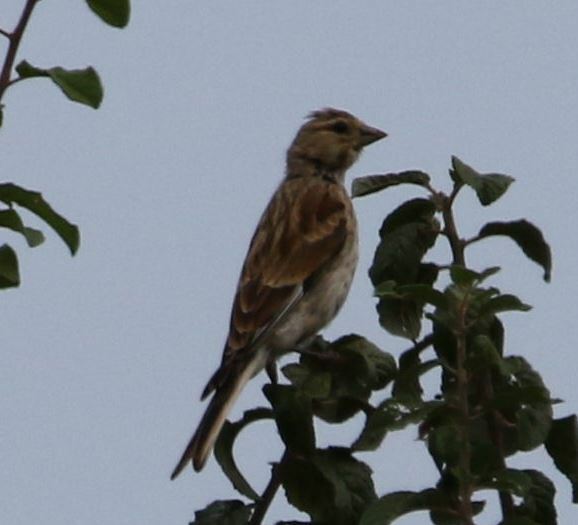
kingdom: Animalia
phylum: Chordata
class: Aves
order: Passeriformes
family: Fringillidae
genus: Linaria
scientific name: Linaria cannabina
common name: Common linnet
